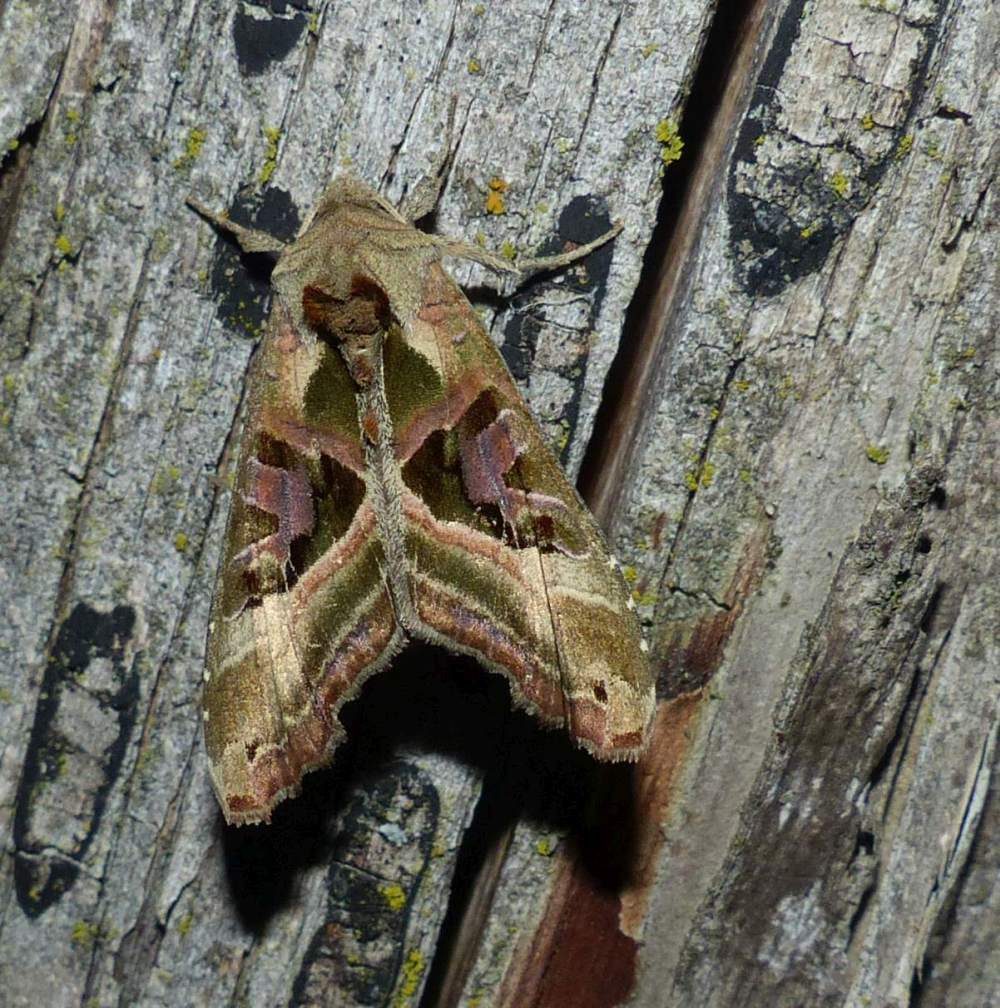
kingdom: Animalia
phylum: Arthropoda
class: Insecta
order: Lepidoptera
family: Noctuidae
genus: Phlogophora
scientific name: Phlogophora iris
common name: Olive angle shades
